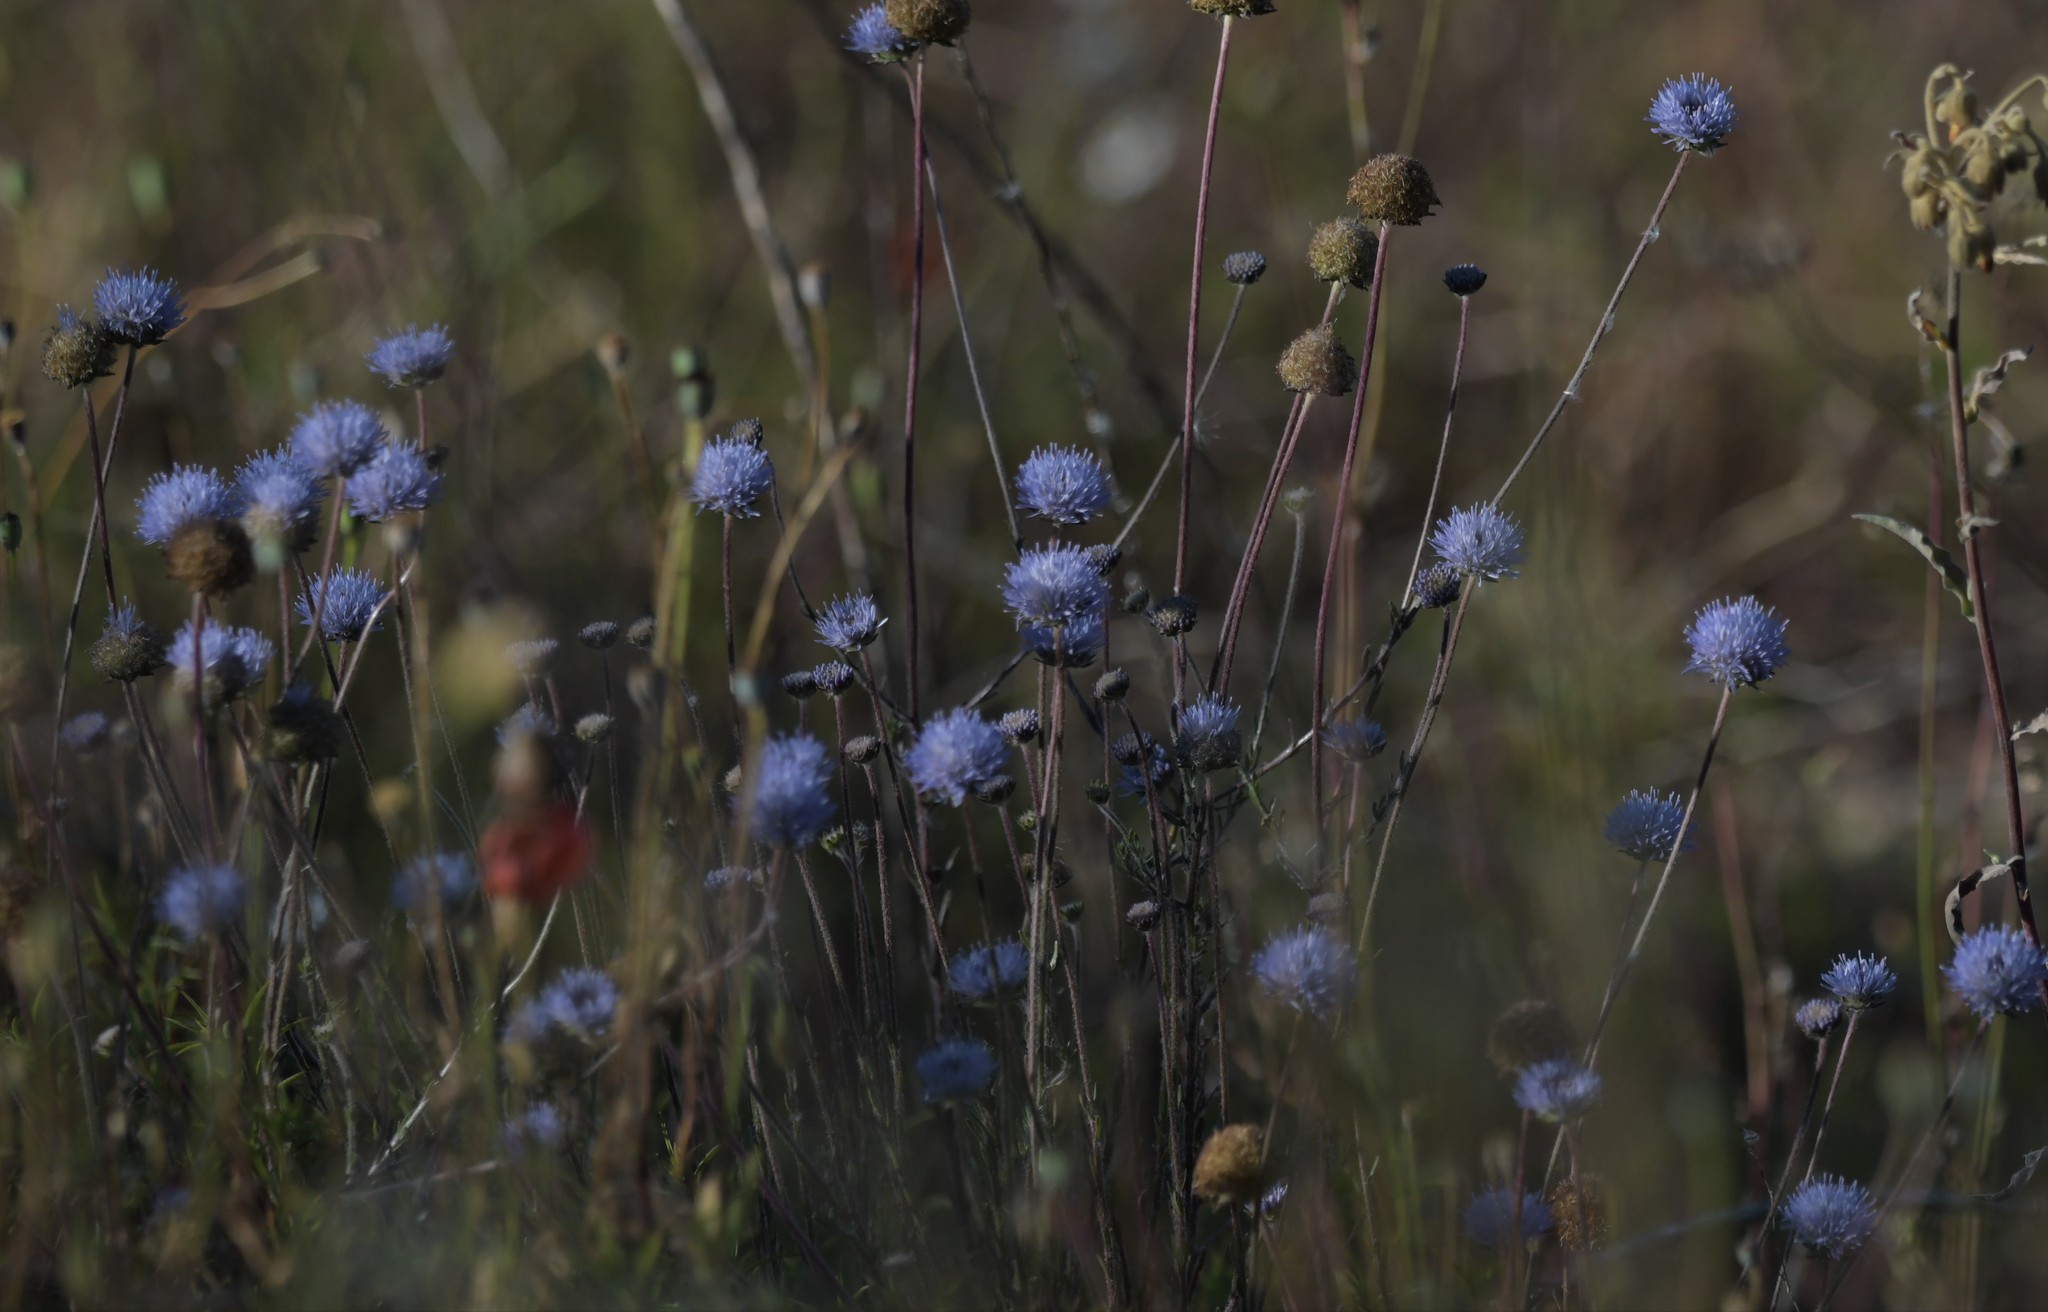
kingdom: Plantae
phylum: Tracheophyta
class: Magnoliopsida
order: Asterales
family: Campanulaceae
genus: Jasione
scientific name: Jasione sessiliflora
